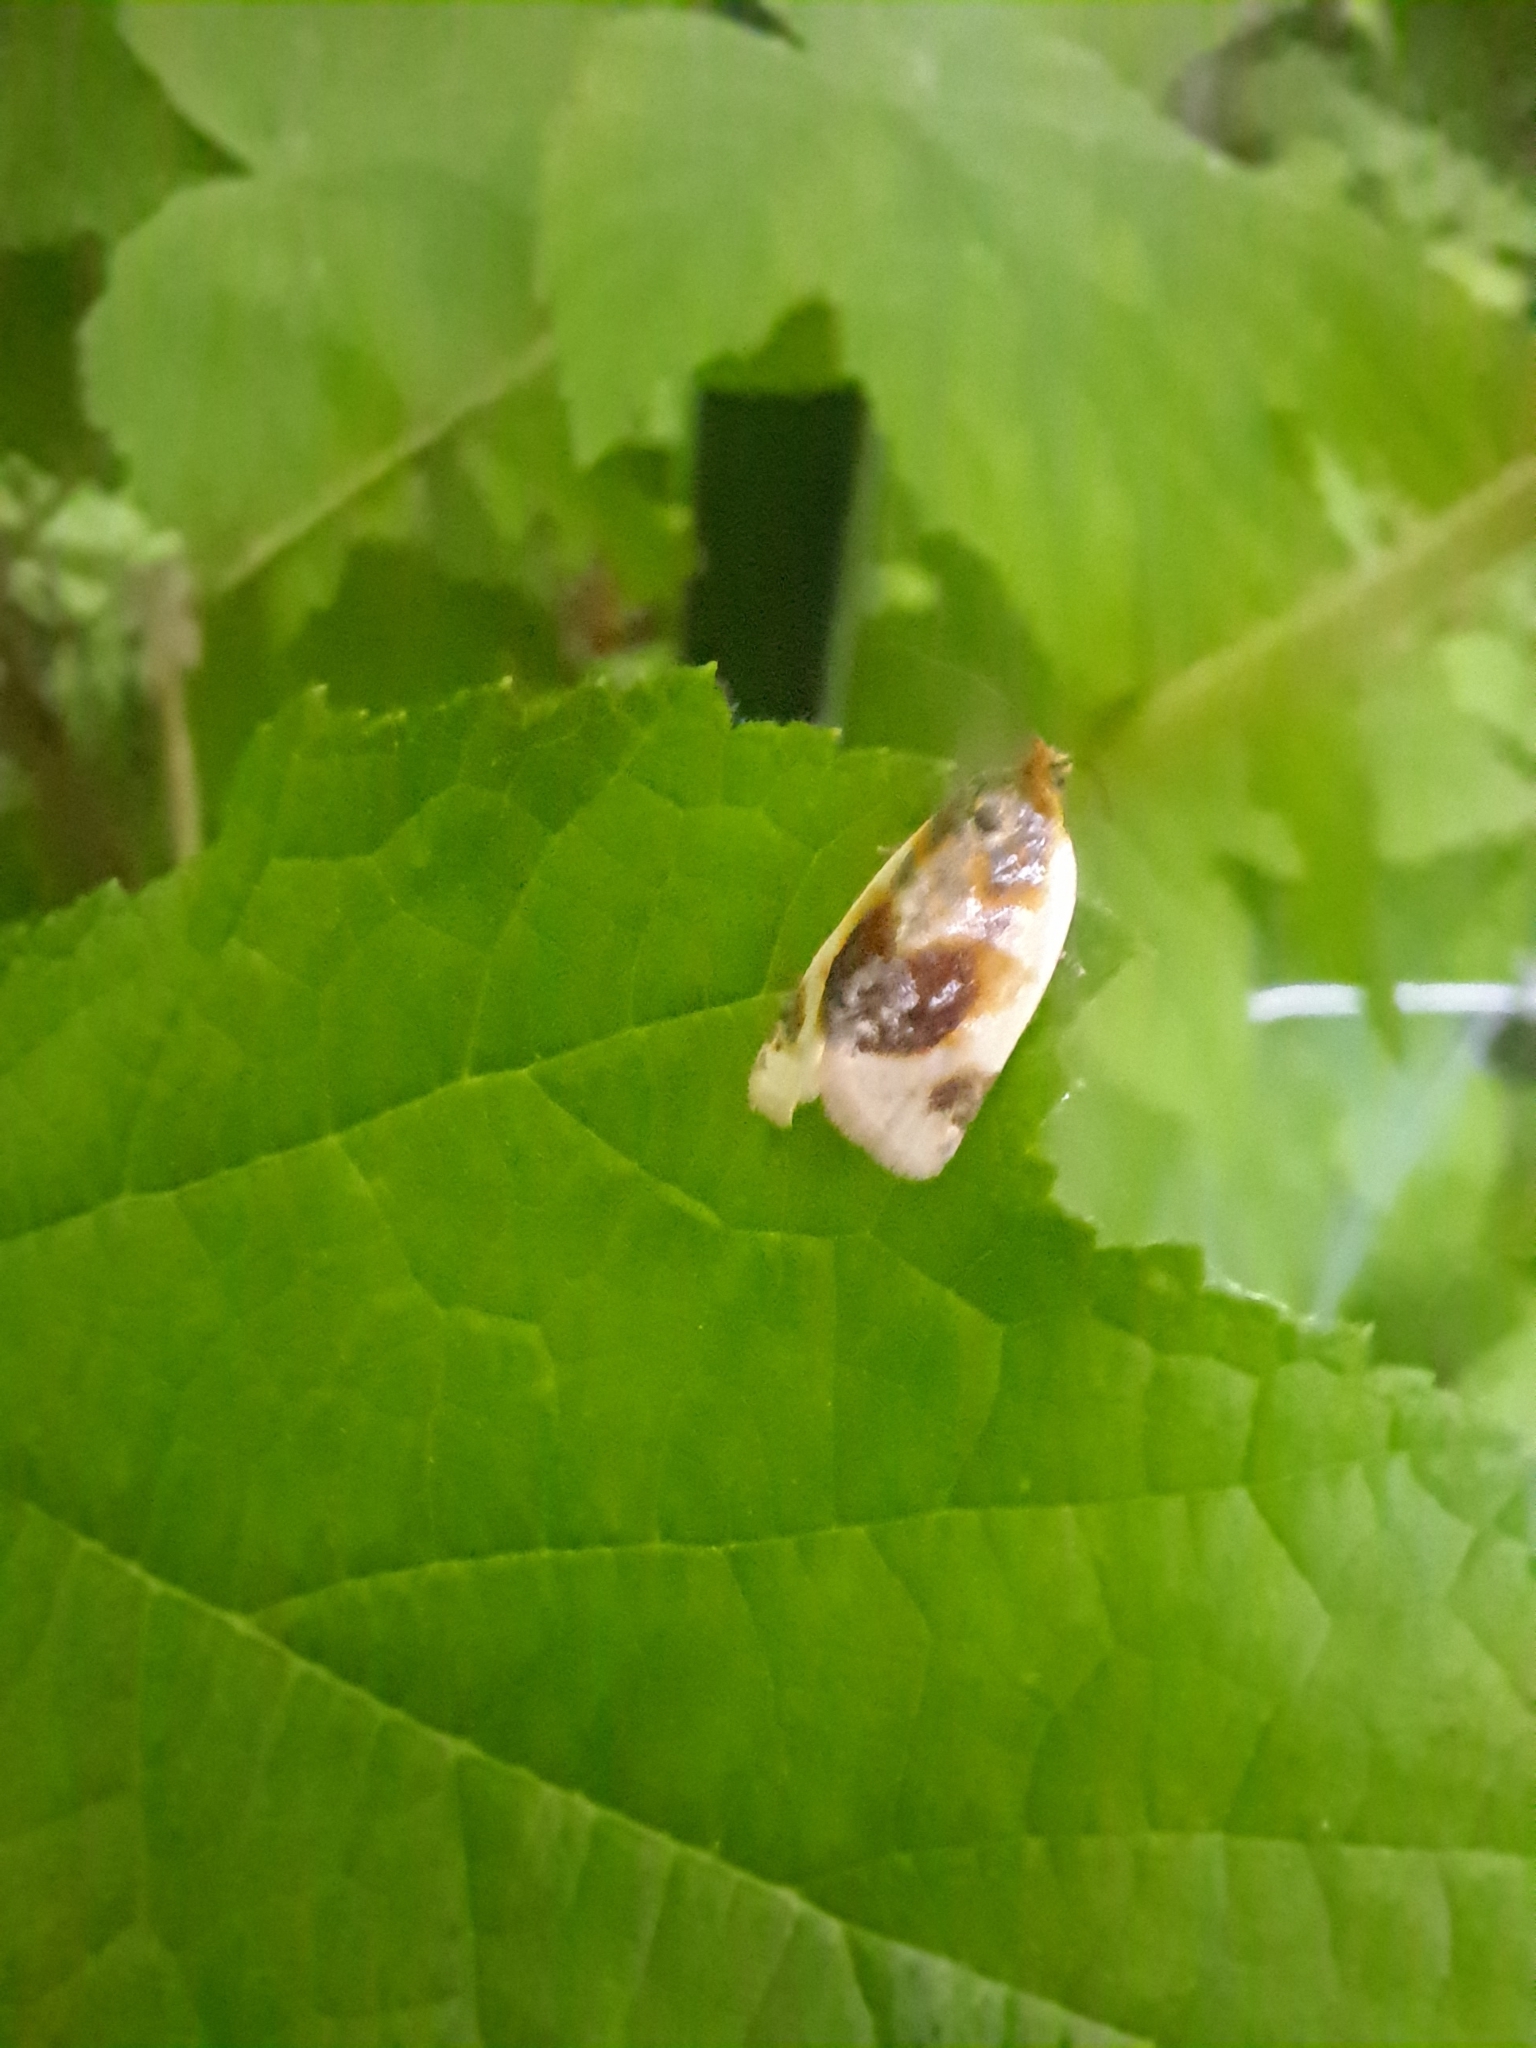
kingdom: Animalia
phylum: Arthropoda
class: Insecta
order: Lepidoptera
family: Tortricidae
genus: Clepsis
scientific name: Clepsis melaleucanus
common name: American apple tortrix
